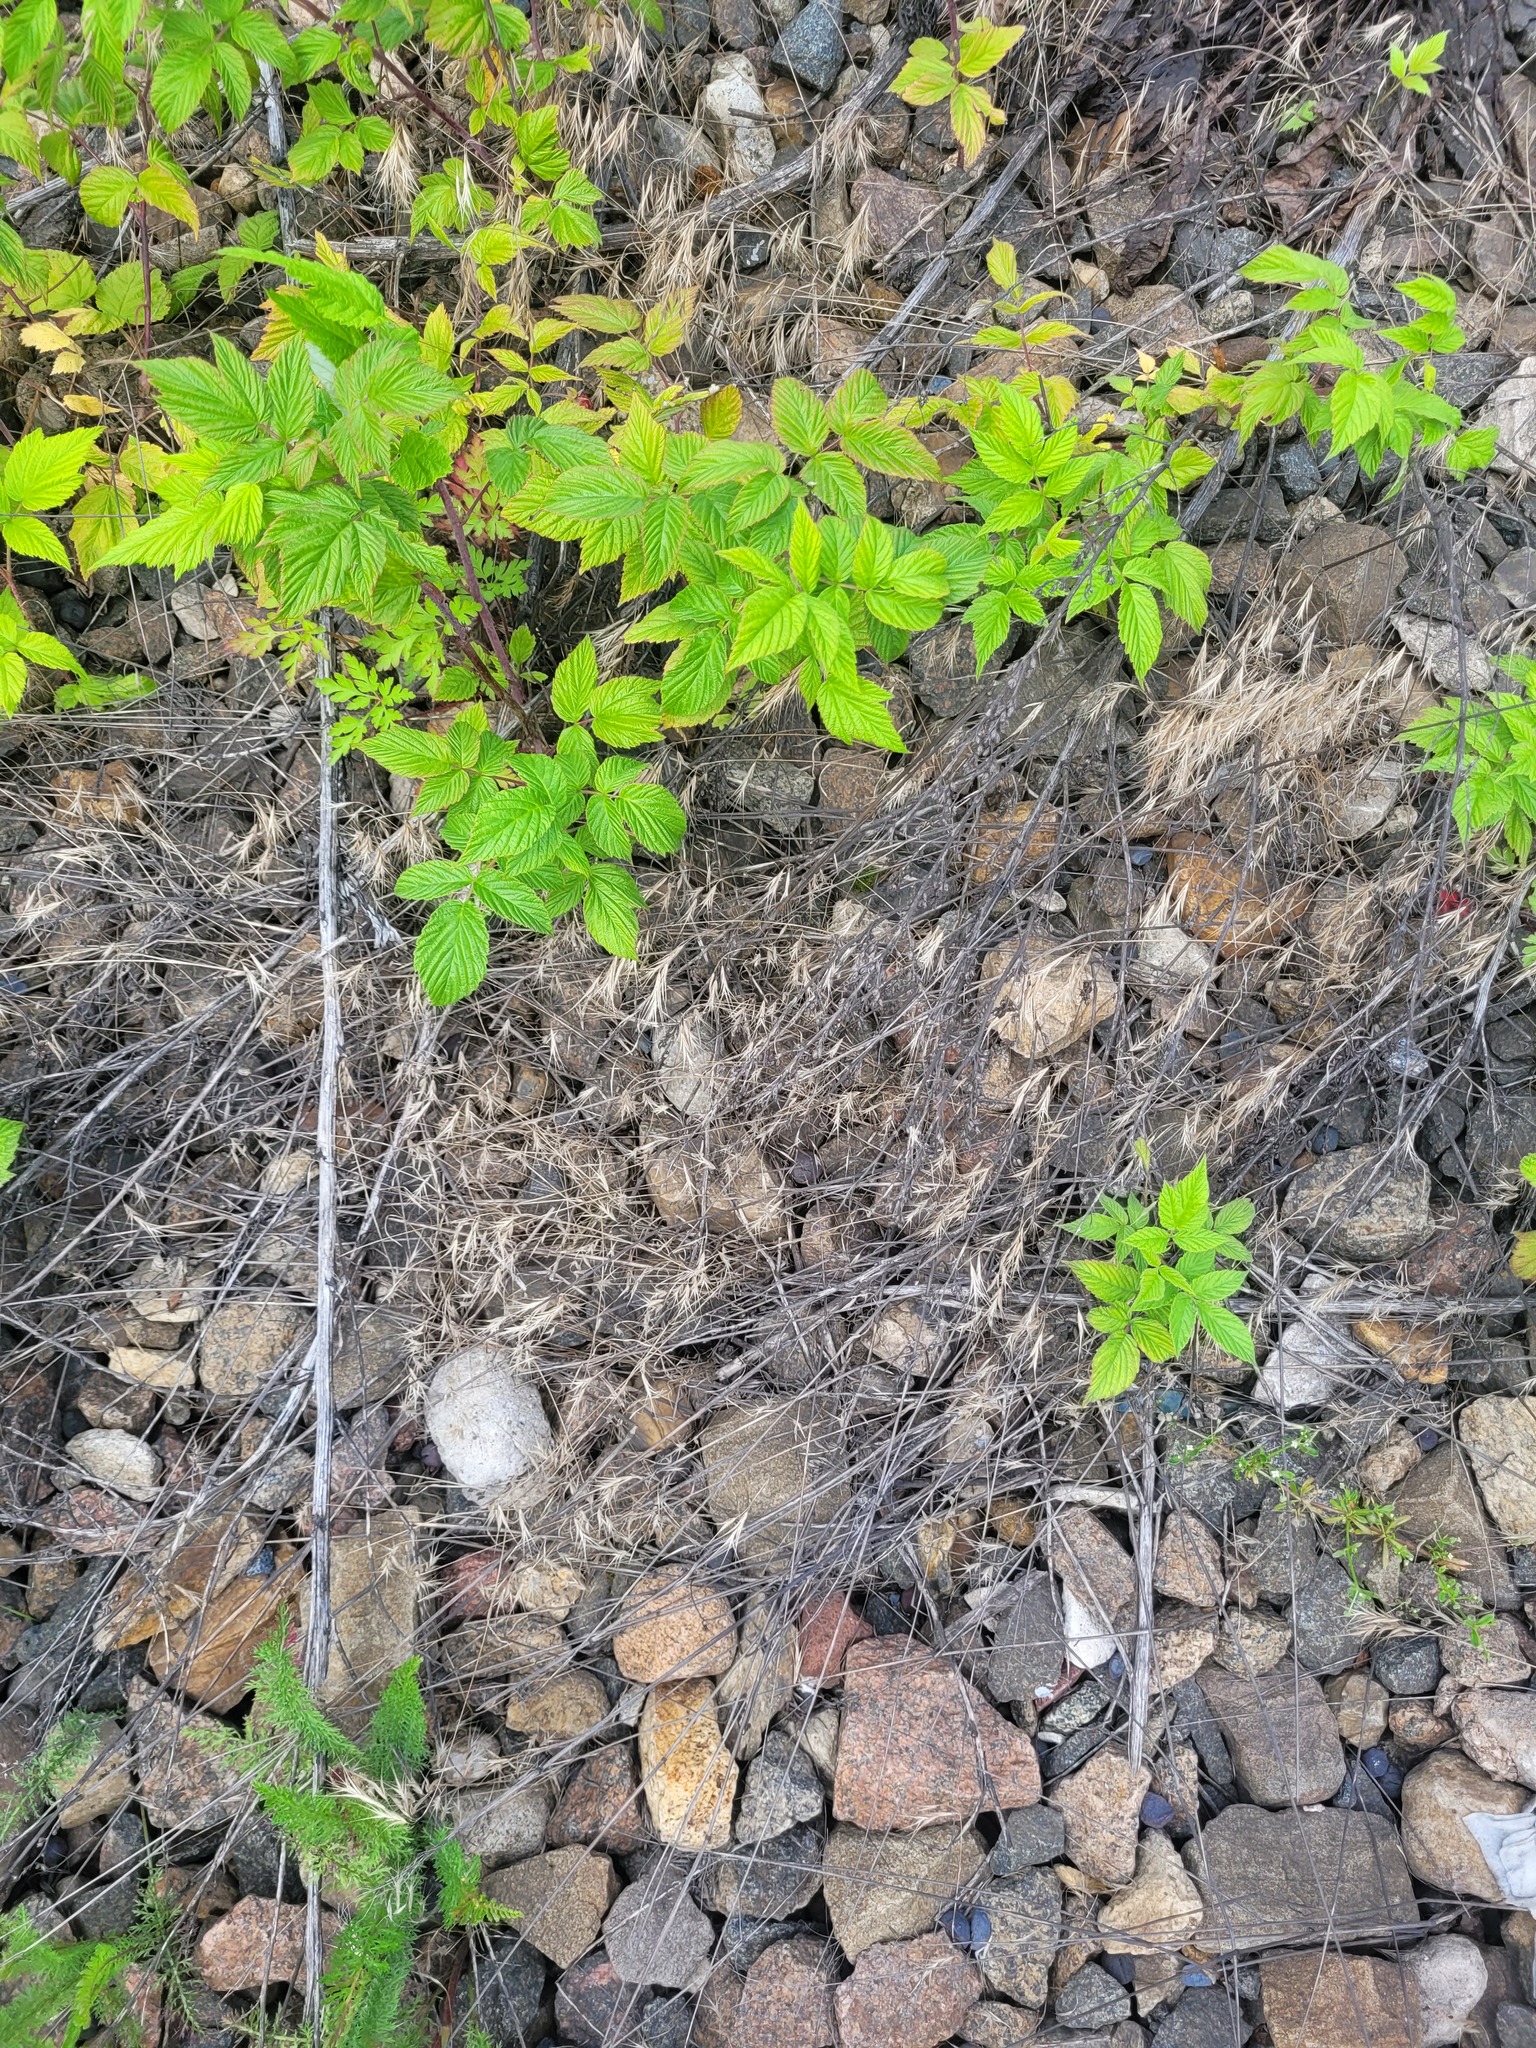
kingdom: Plantae
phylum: Tracheophyta
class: Liliopsida
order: Poales
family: Poaceae
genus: Bromus
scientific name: Bromus tectorum
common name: Cheatgrass
